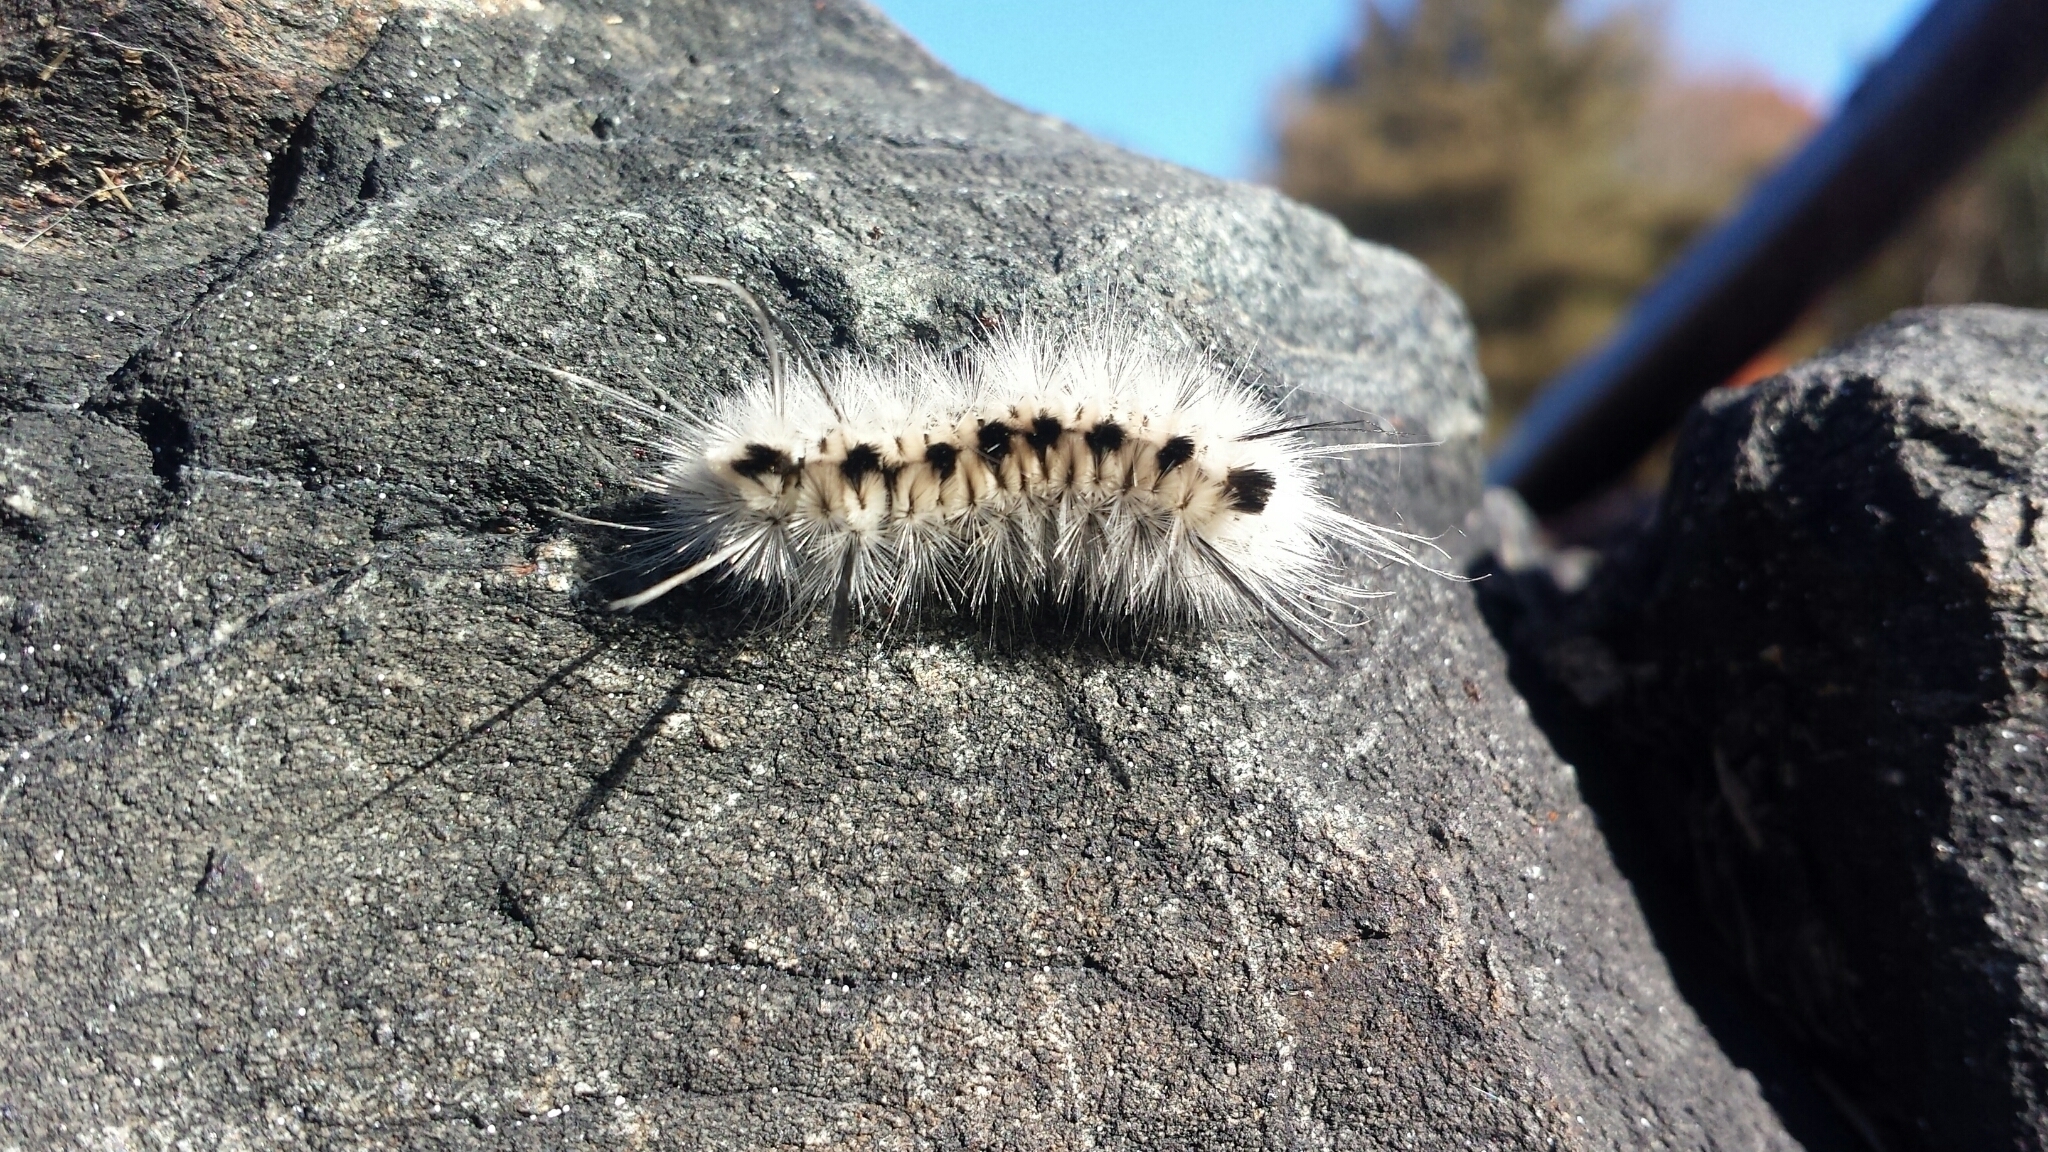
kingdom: Animalia
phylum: Arthropoda
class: Insecta
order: Lepidoptera
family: Erebidae
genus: Lophocampa
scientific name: Lophocampa caryae
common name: Hickory tussock moth
